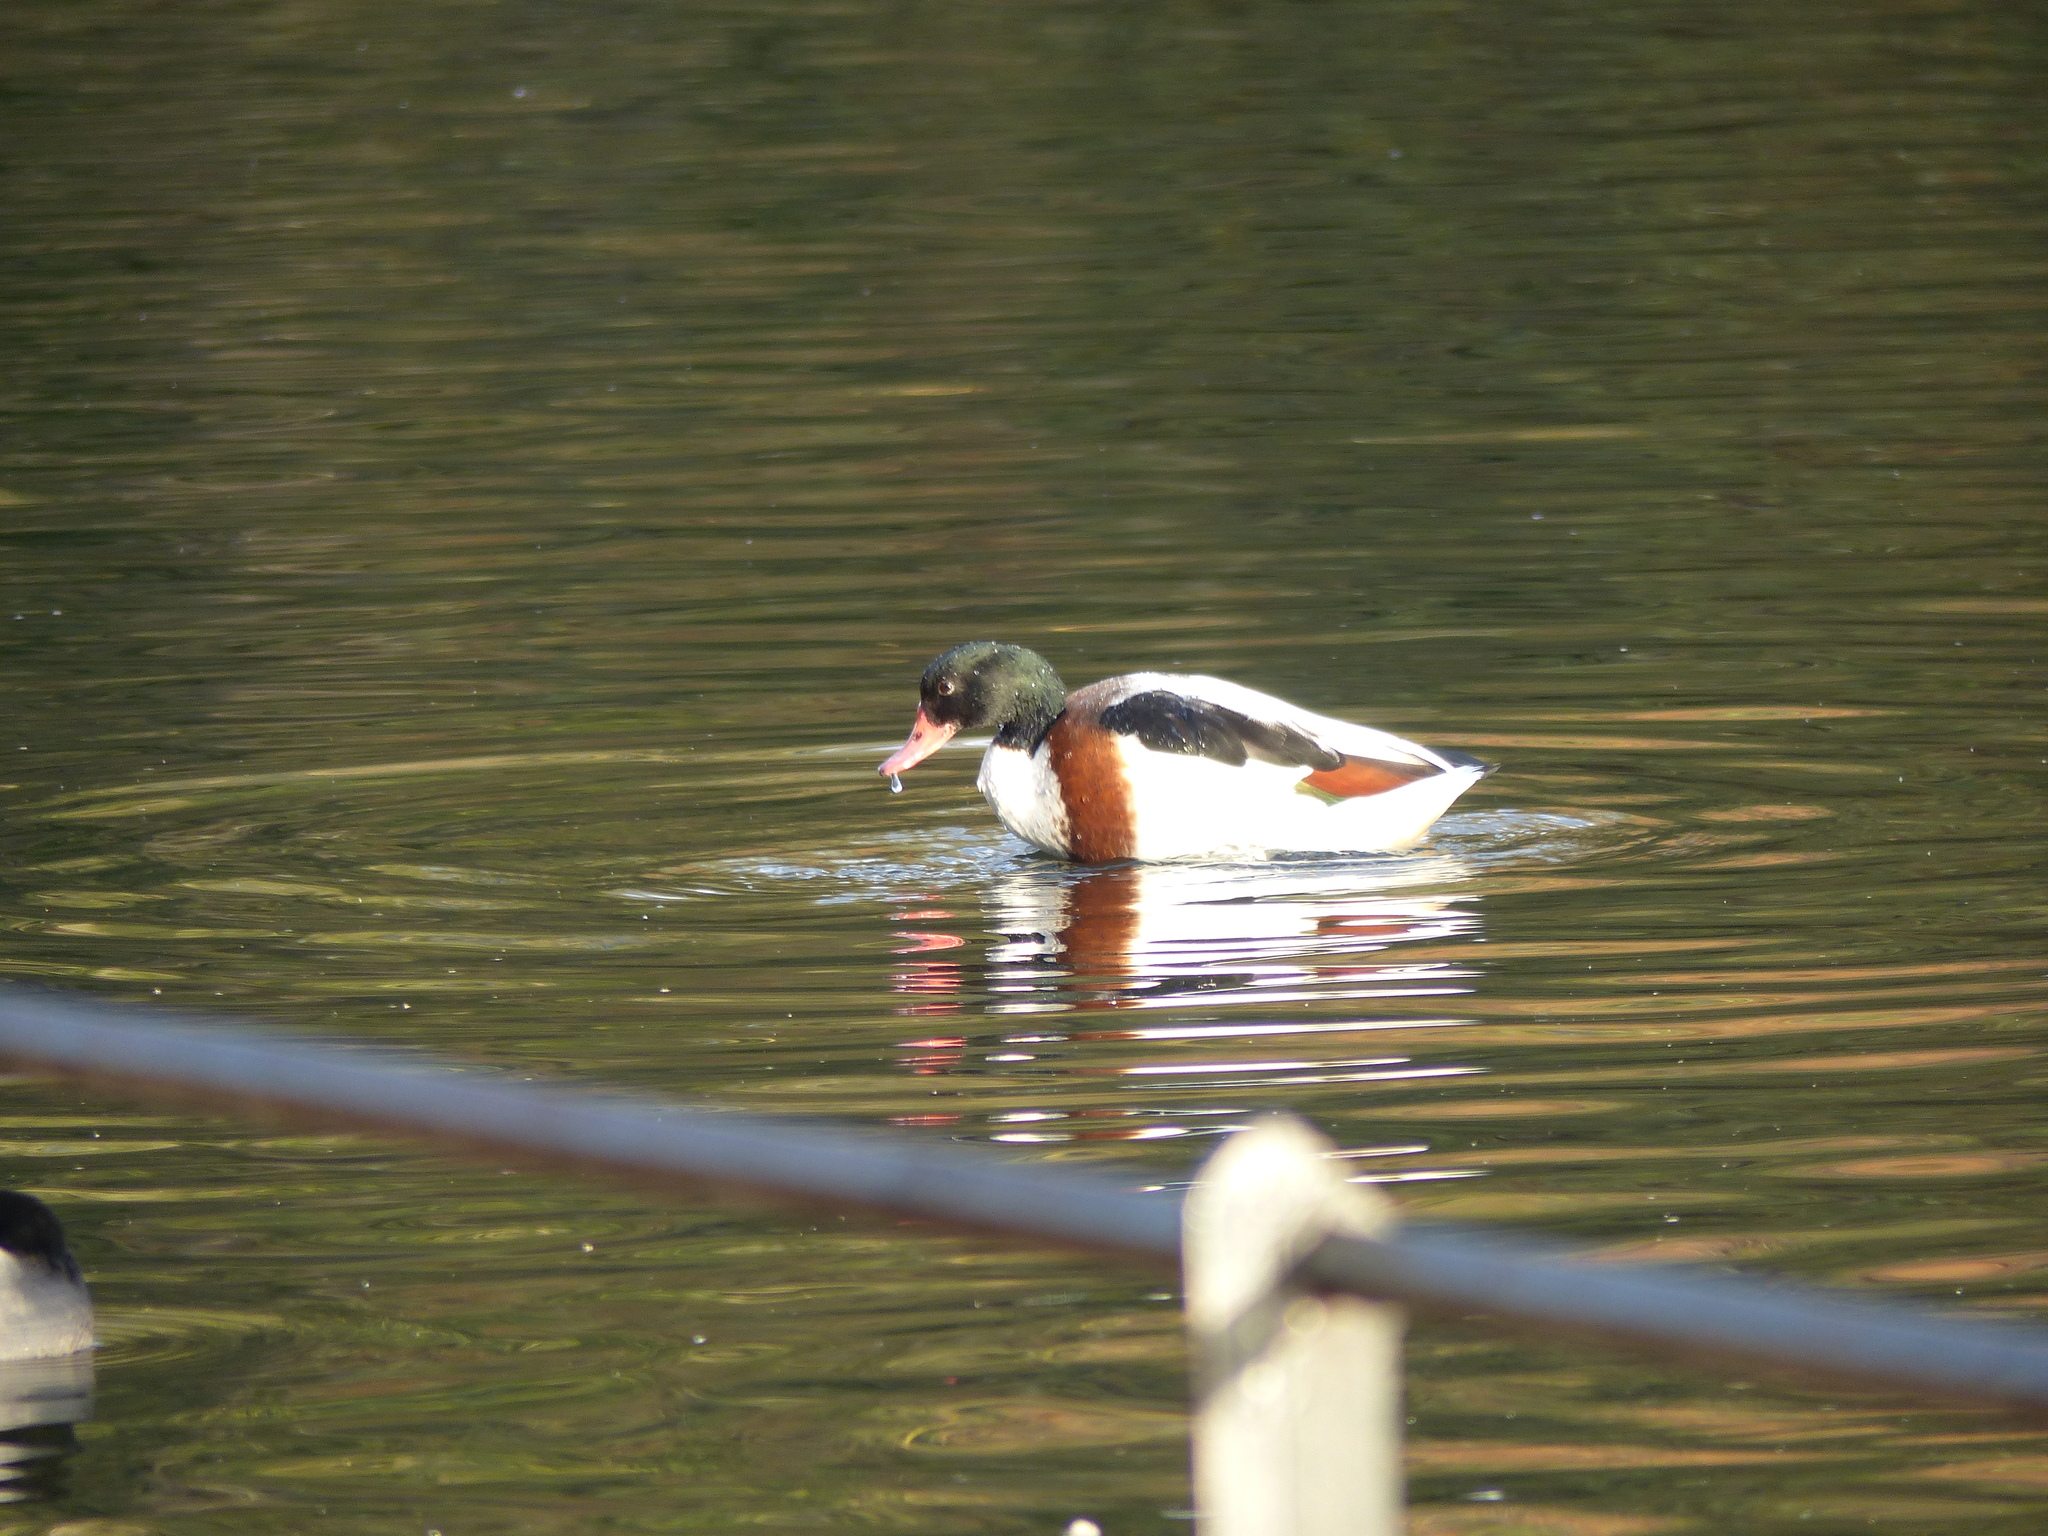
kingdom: Animalia
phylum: Chordata
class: Aves
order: Anseriformes
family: Anatidae
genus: Tadorna
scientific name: Tadorna tadorna
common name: Common shelduck
